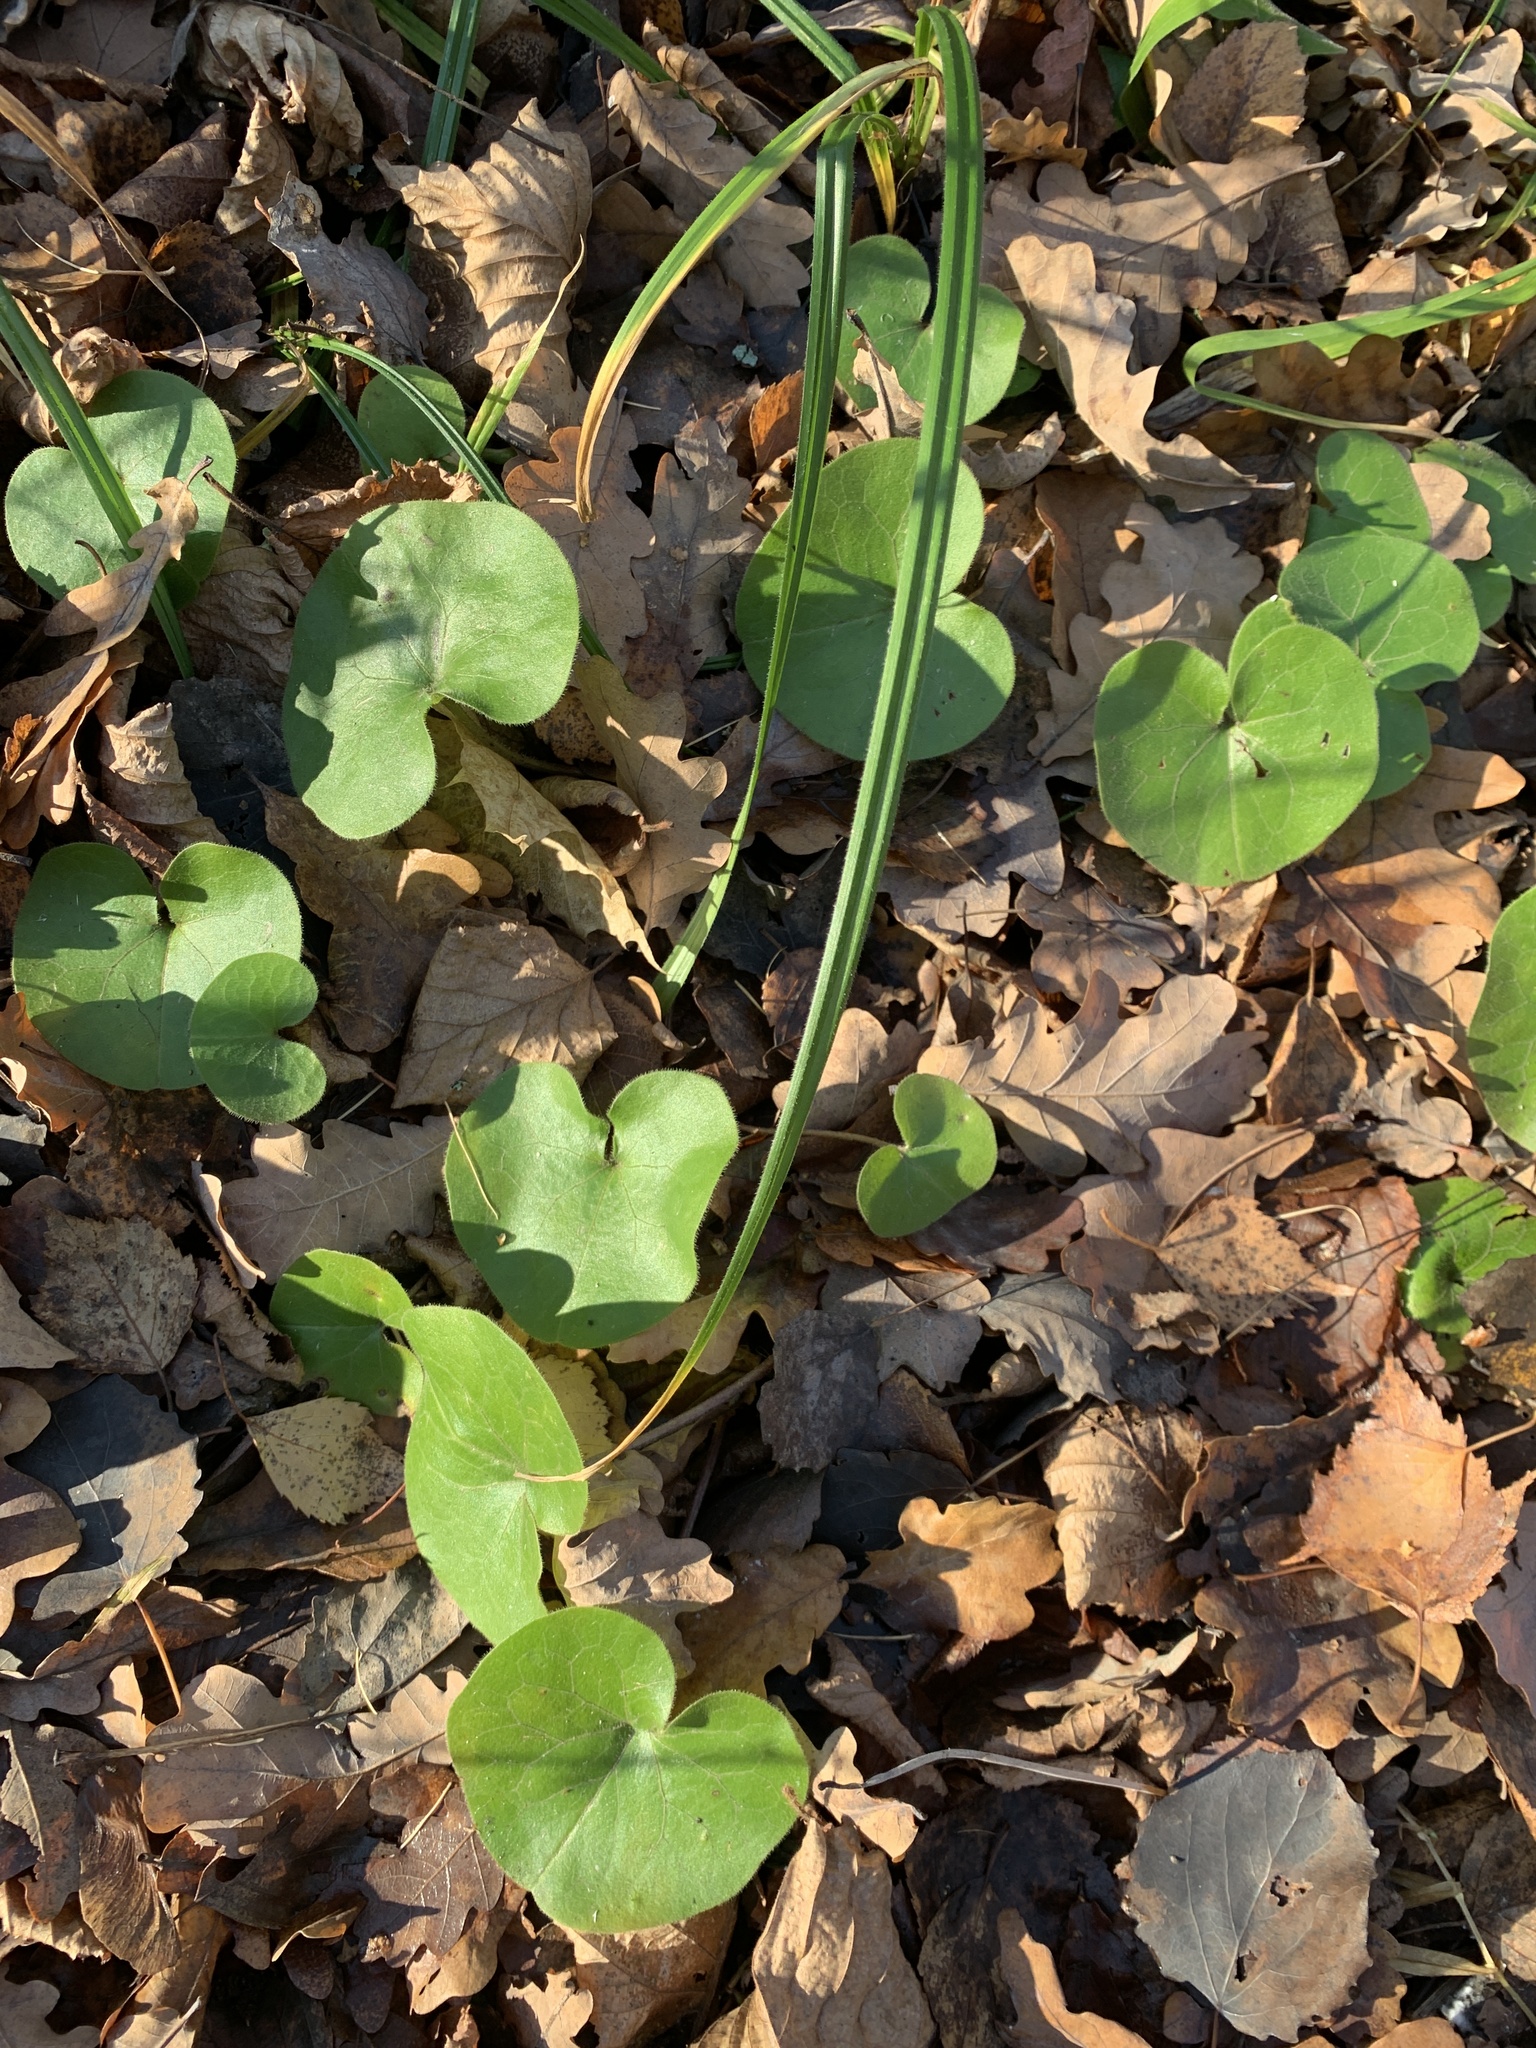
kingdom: Plantae
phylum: Tracheophyta
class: Magnoliopsida
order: Piperales
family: Aristolochiaceae
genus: Asarum
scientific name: Asarum europaeum
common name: Asarabacca
